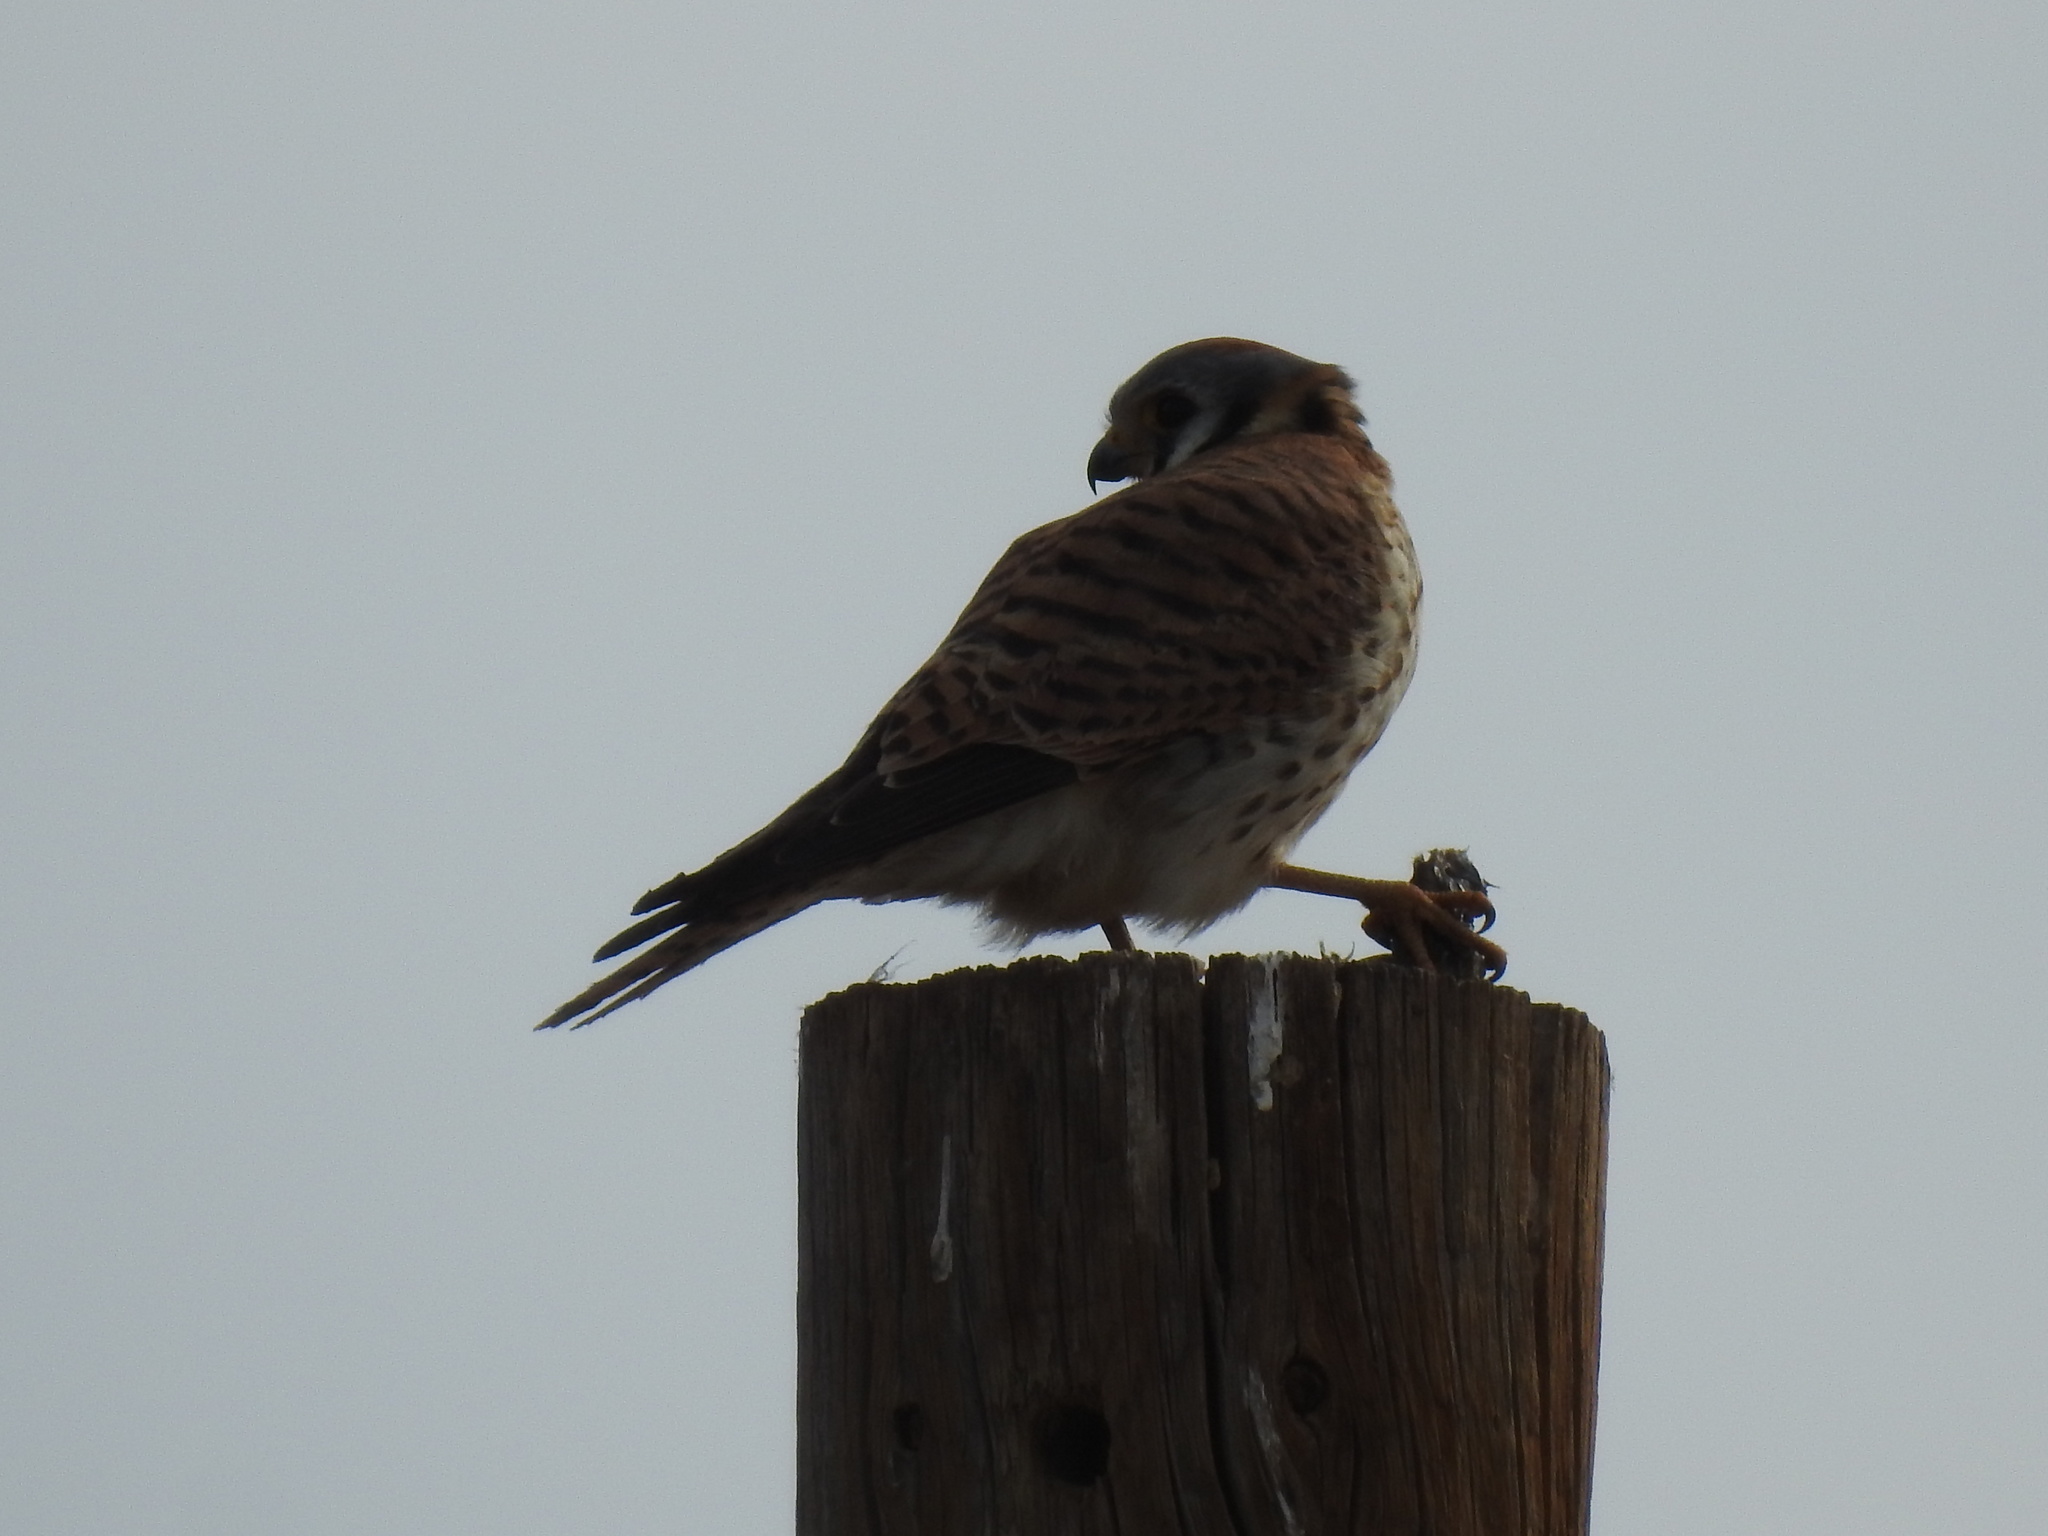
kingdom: Animalia
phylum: Chordata
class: Aves
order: Falconiformes
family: Falconidae
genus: Falco
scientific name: Falco sparverius
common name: American kestrel
